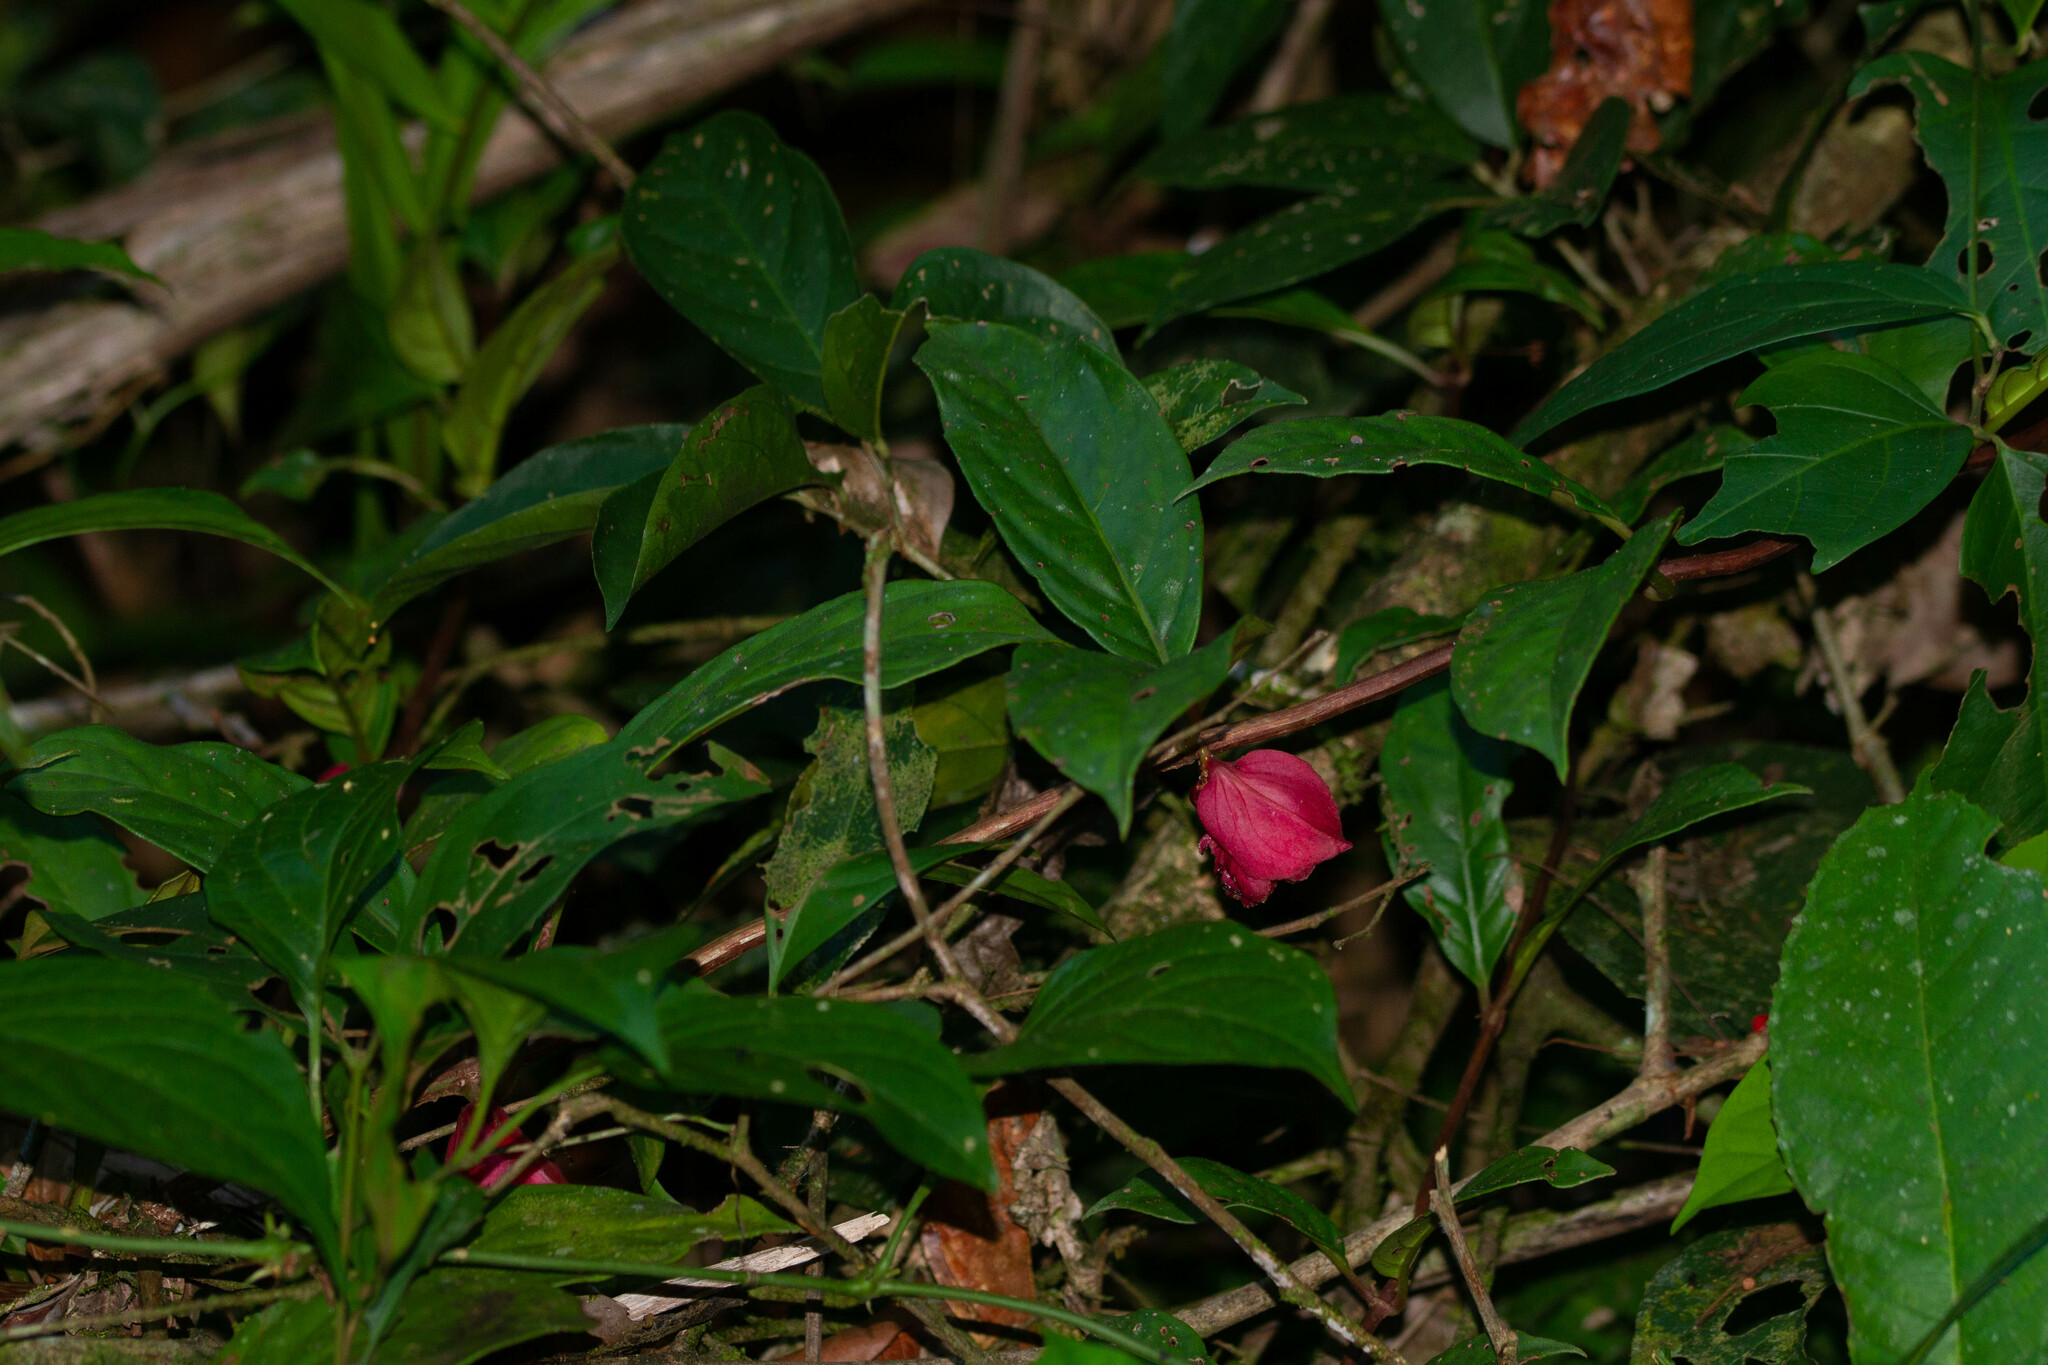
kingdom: Plantae
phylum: Tracheophyta
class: Magnoliopsida
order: Lamiales
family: Gesneriaceae
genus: Drymonia
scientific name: Drymonia coccinea
